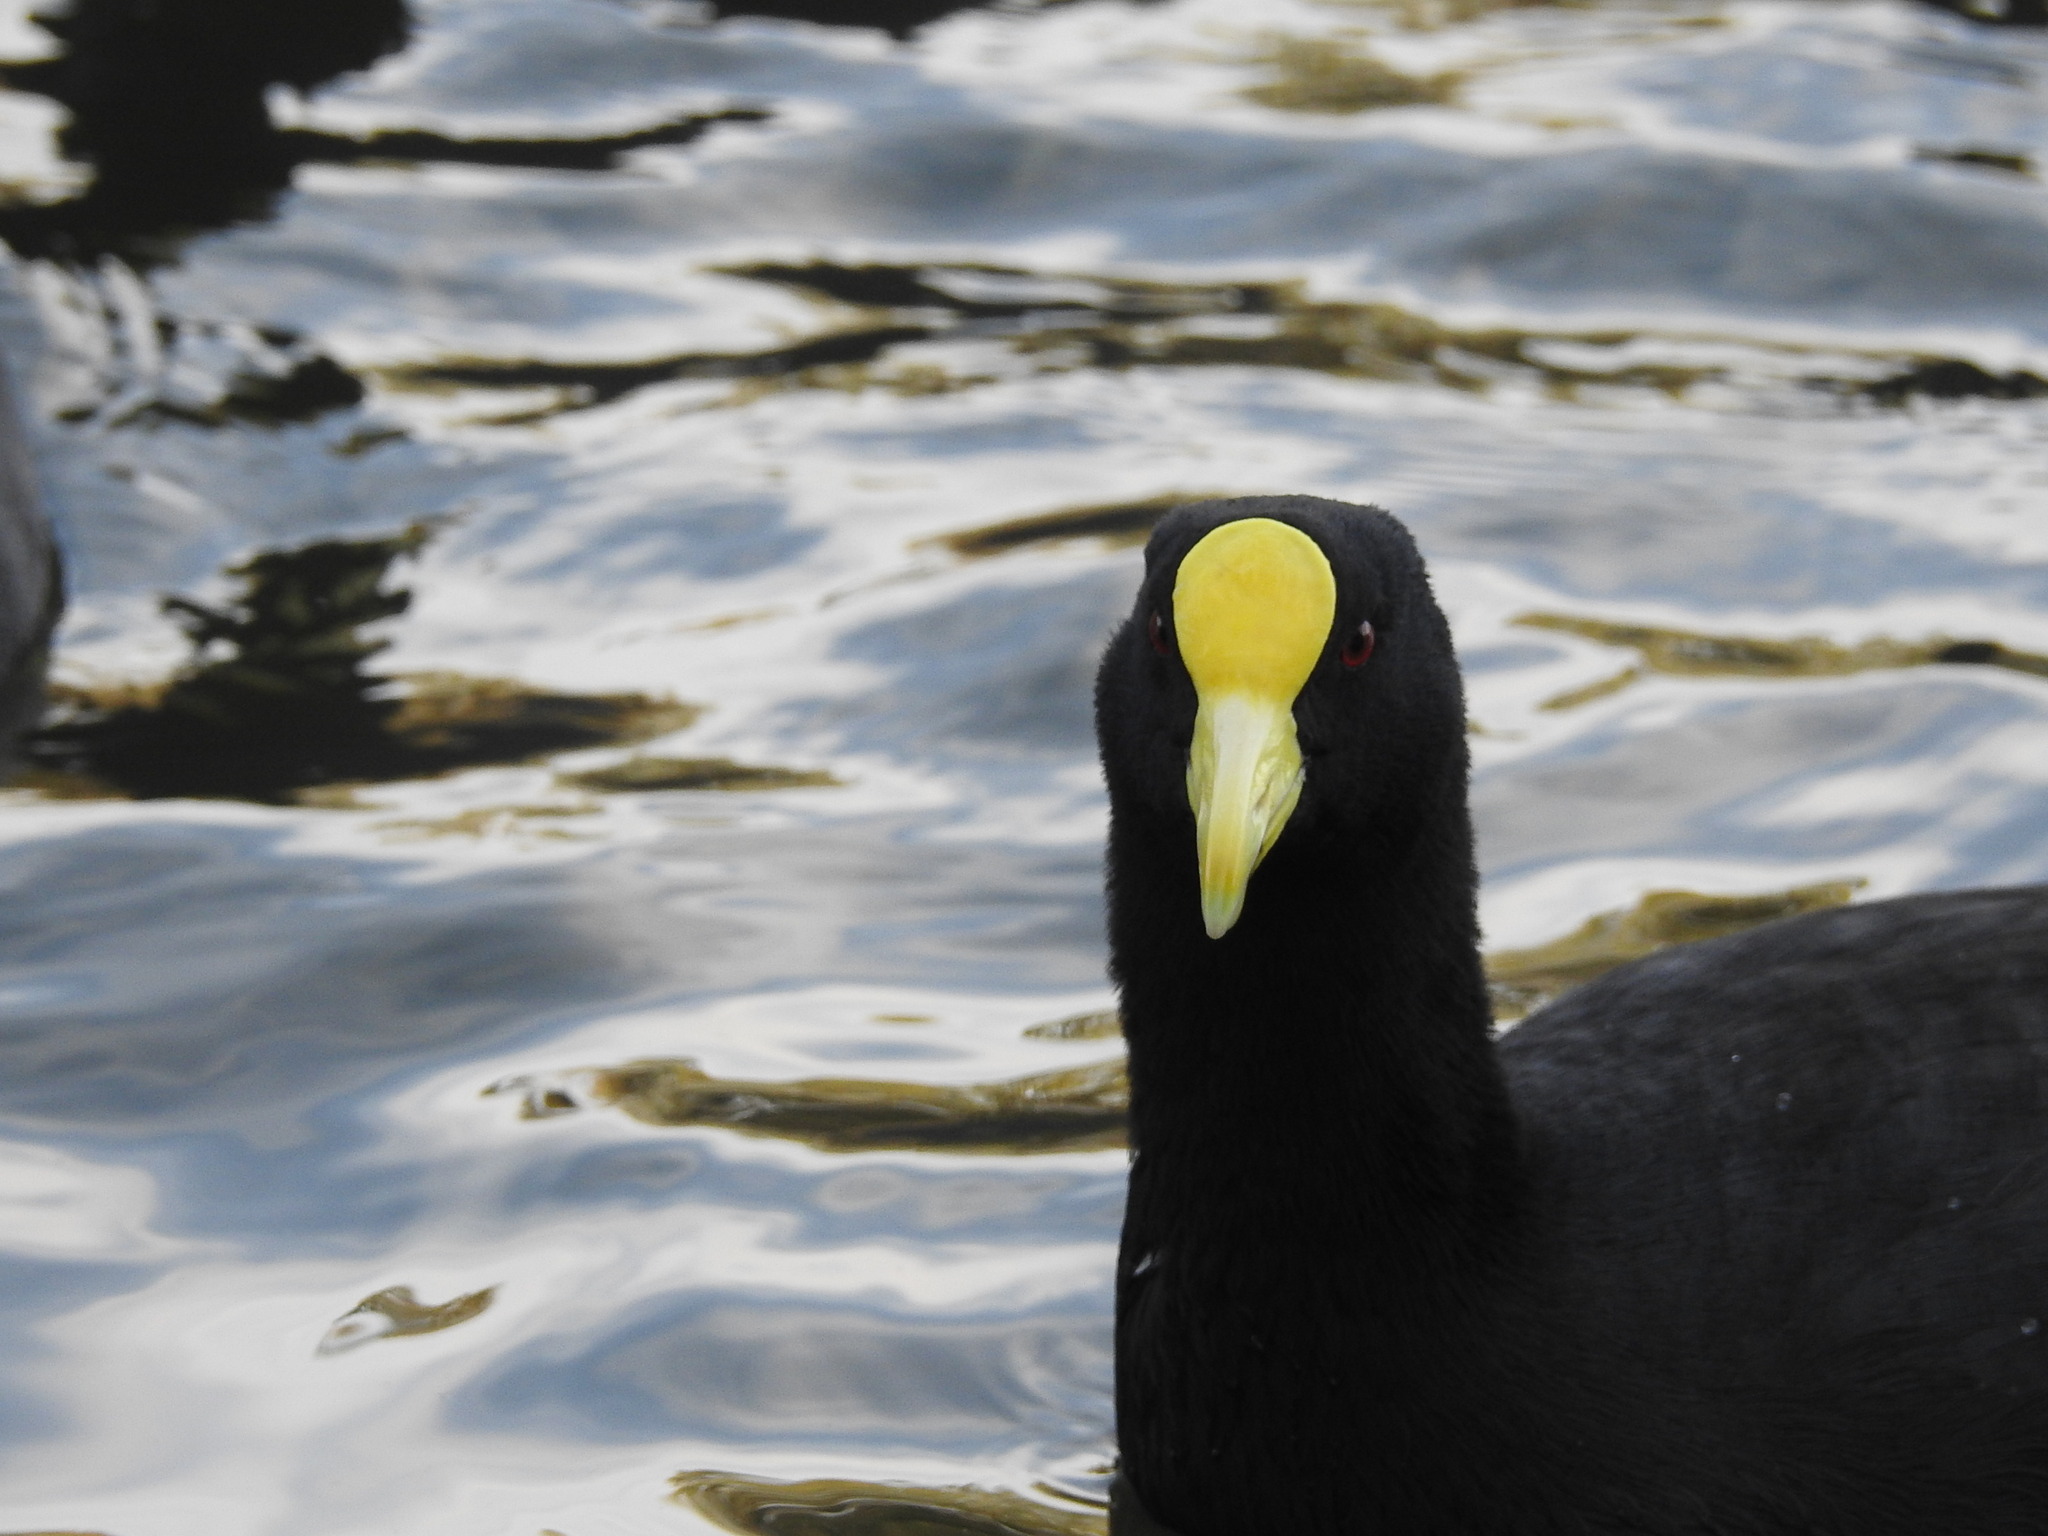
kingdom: Animalia
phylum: Chordata
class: Aves
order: Gruiformes
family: Rallidae
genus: Fulica
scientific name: Fulica leucoptera
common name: White-winged coot
